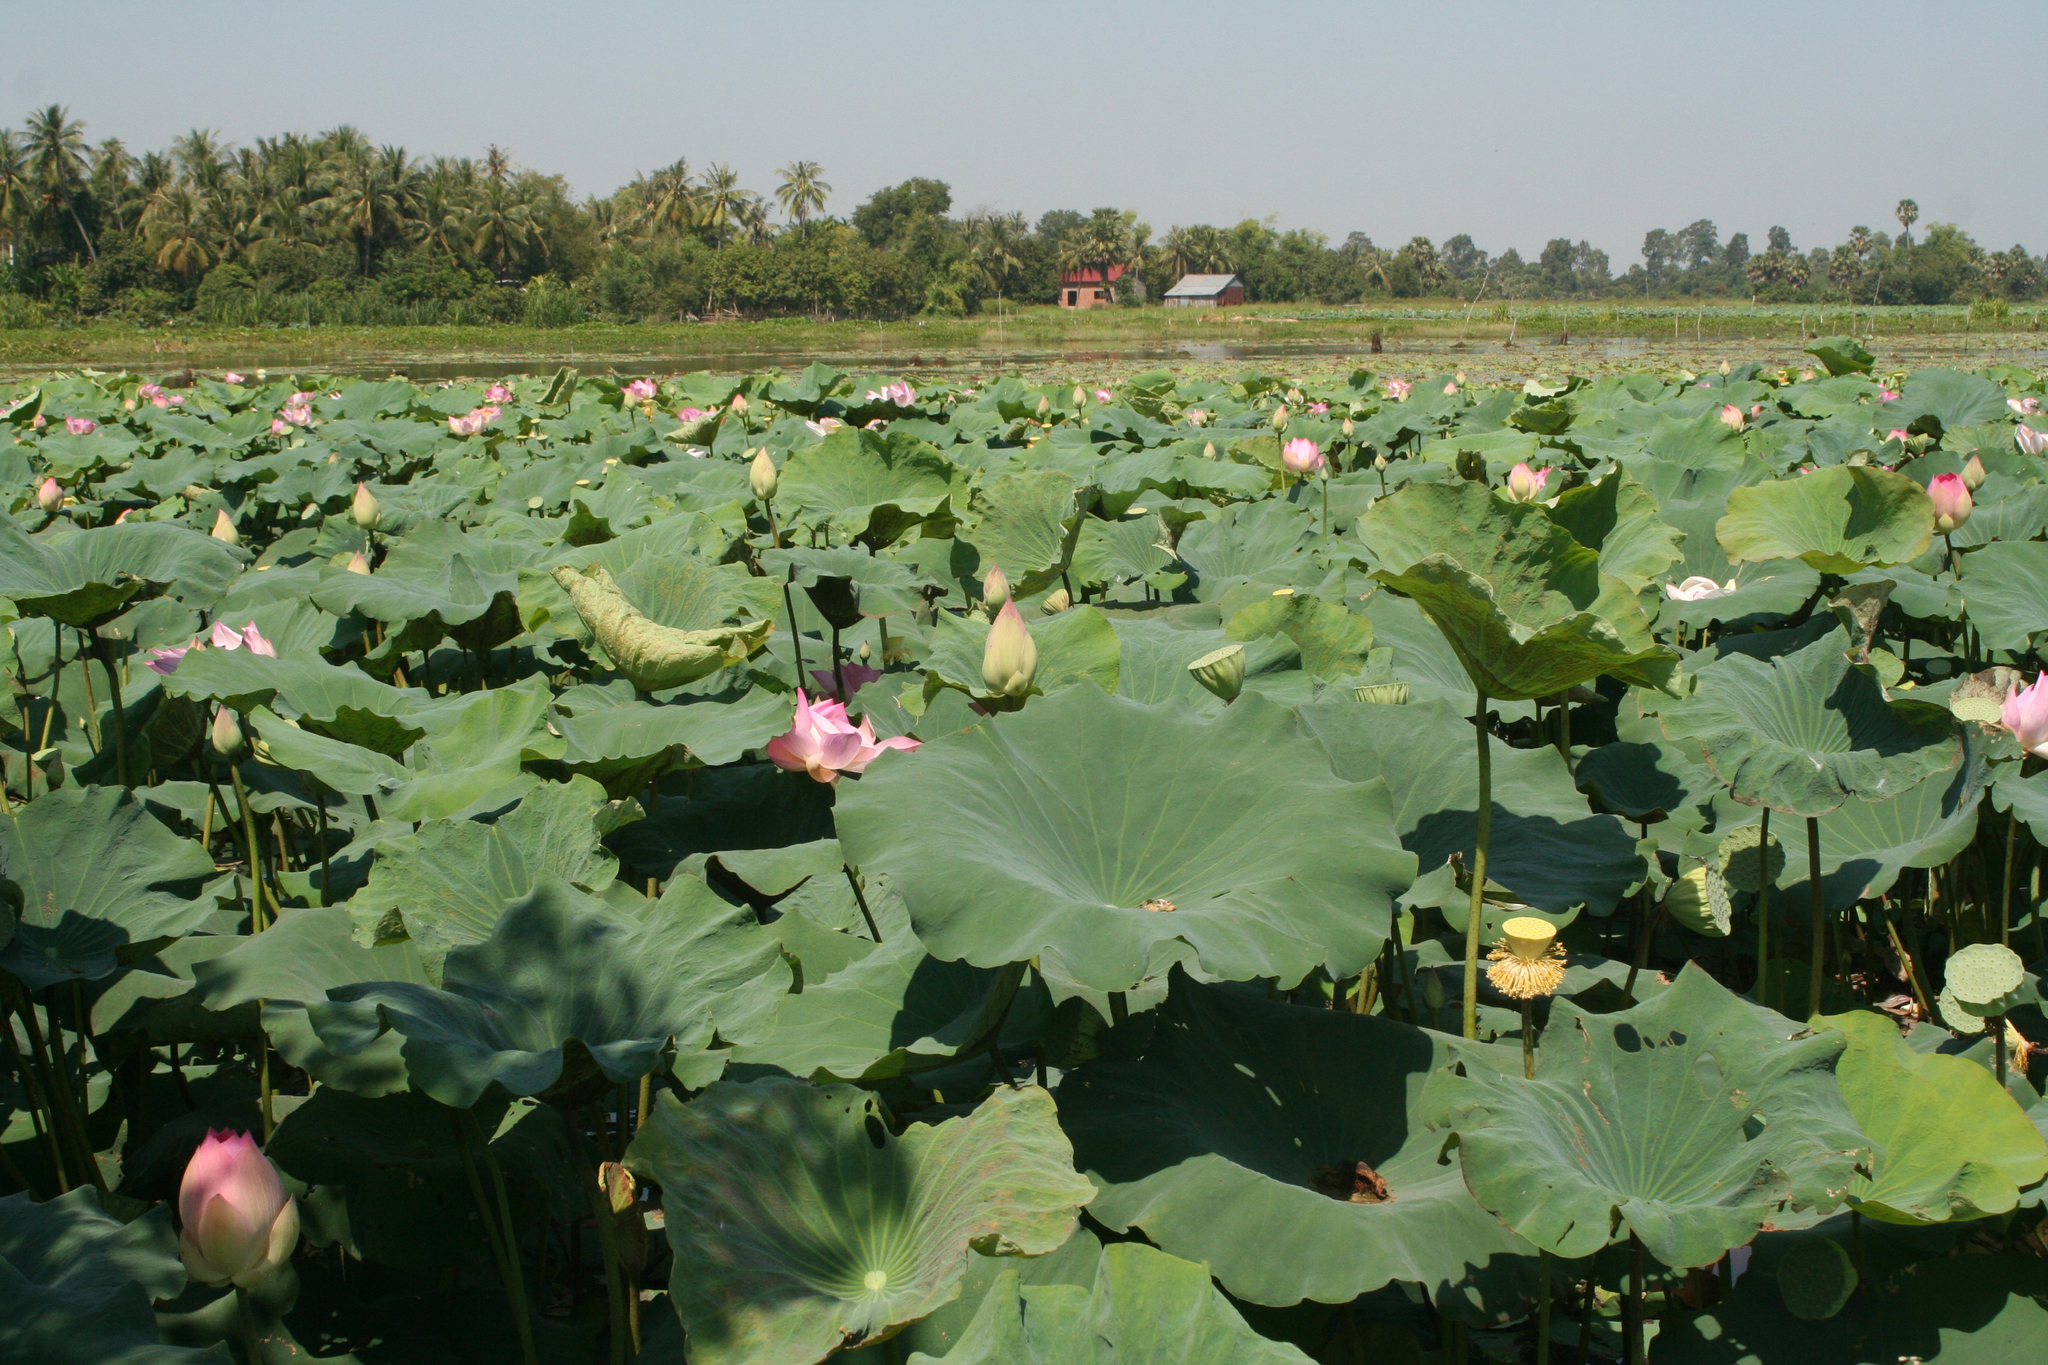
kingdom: Plantae
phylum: Tracheophyta
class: Magnoliopsida
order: Proteales
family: Nelumbonaceae
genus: Nelumbo
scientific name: Nelumbo nucifera
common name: Sacred lotus
